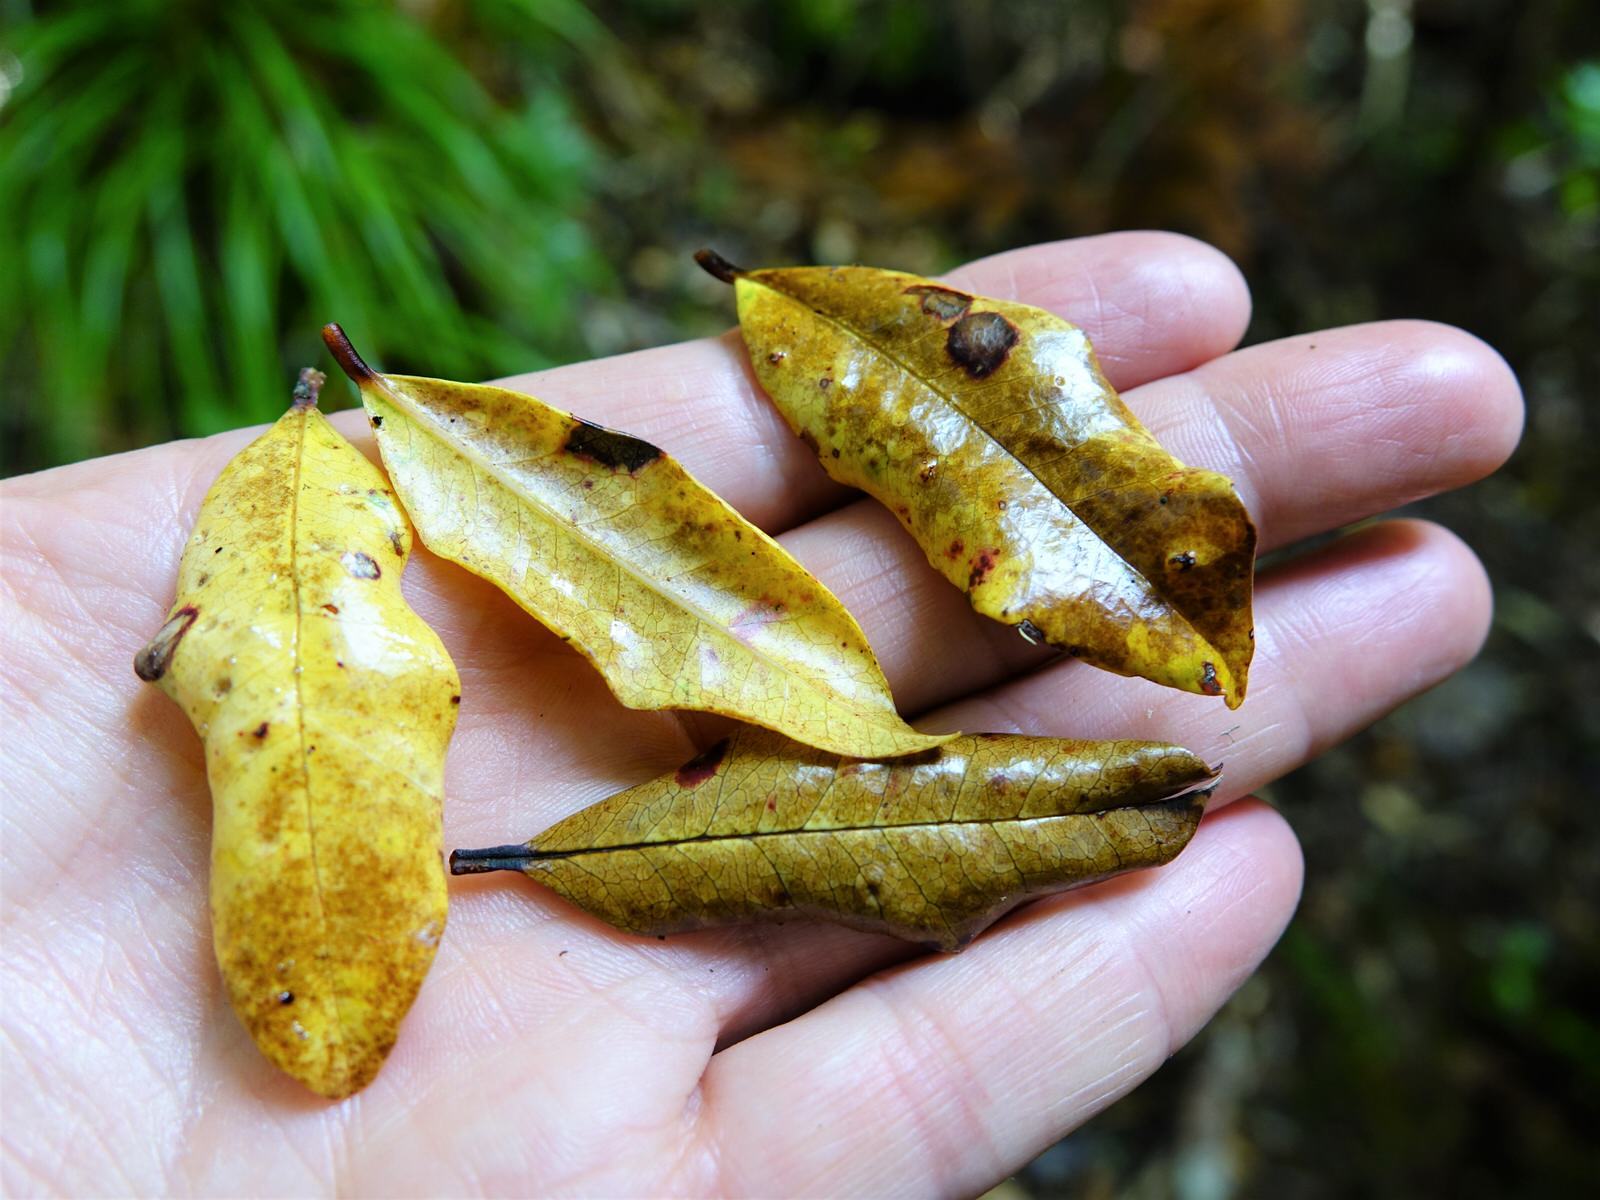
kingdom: Plantae
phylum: Tracheophyta
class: Magnoliopsida
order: Myrtales
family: Myrtaceae
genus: Syzygium
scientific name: Syzygium maire
